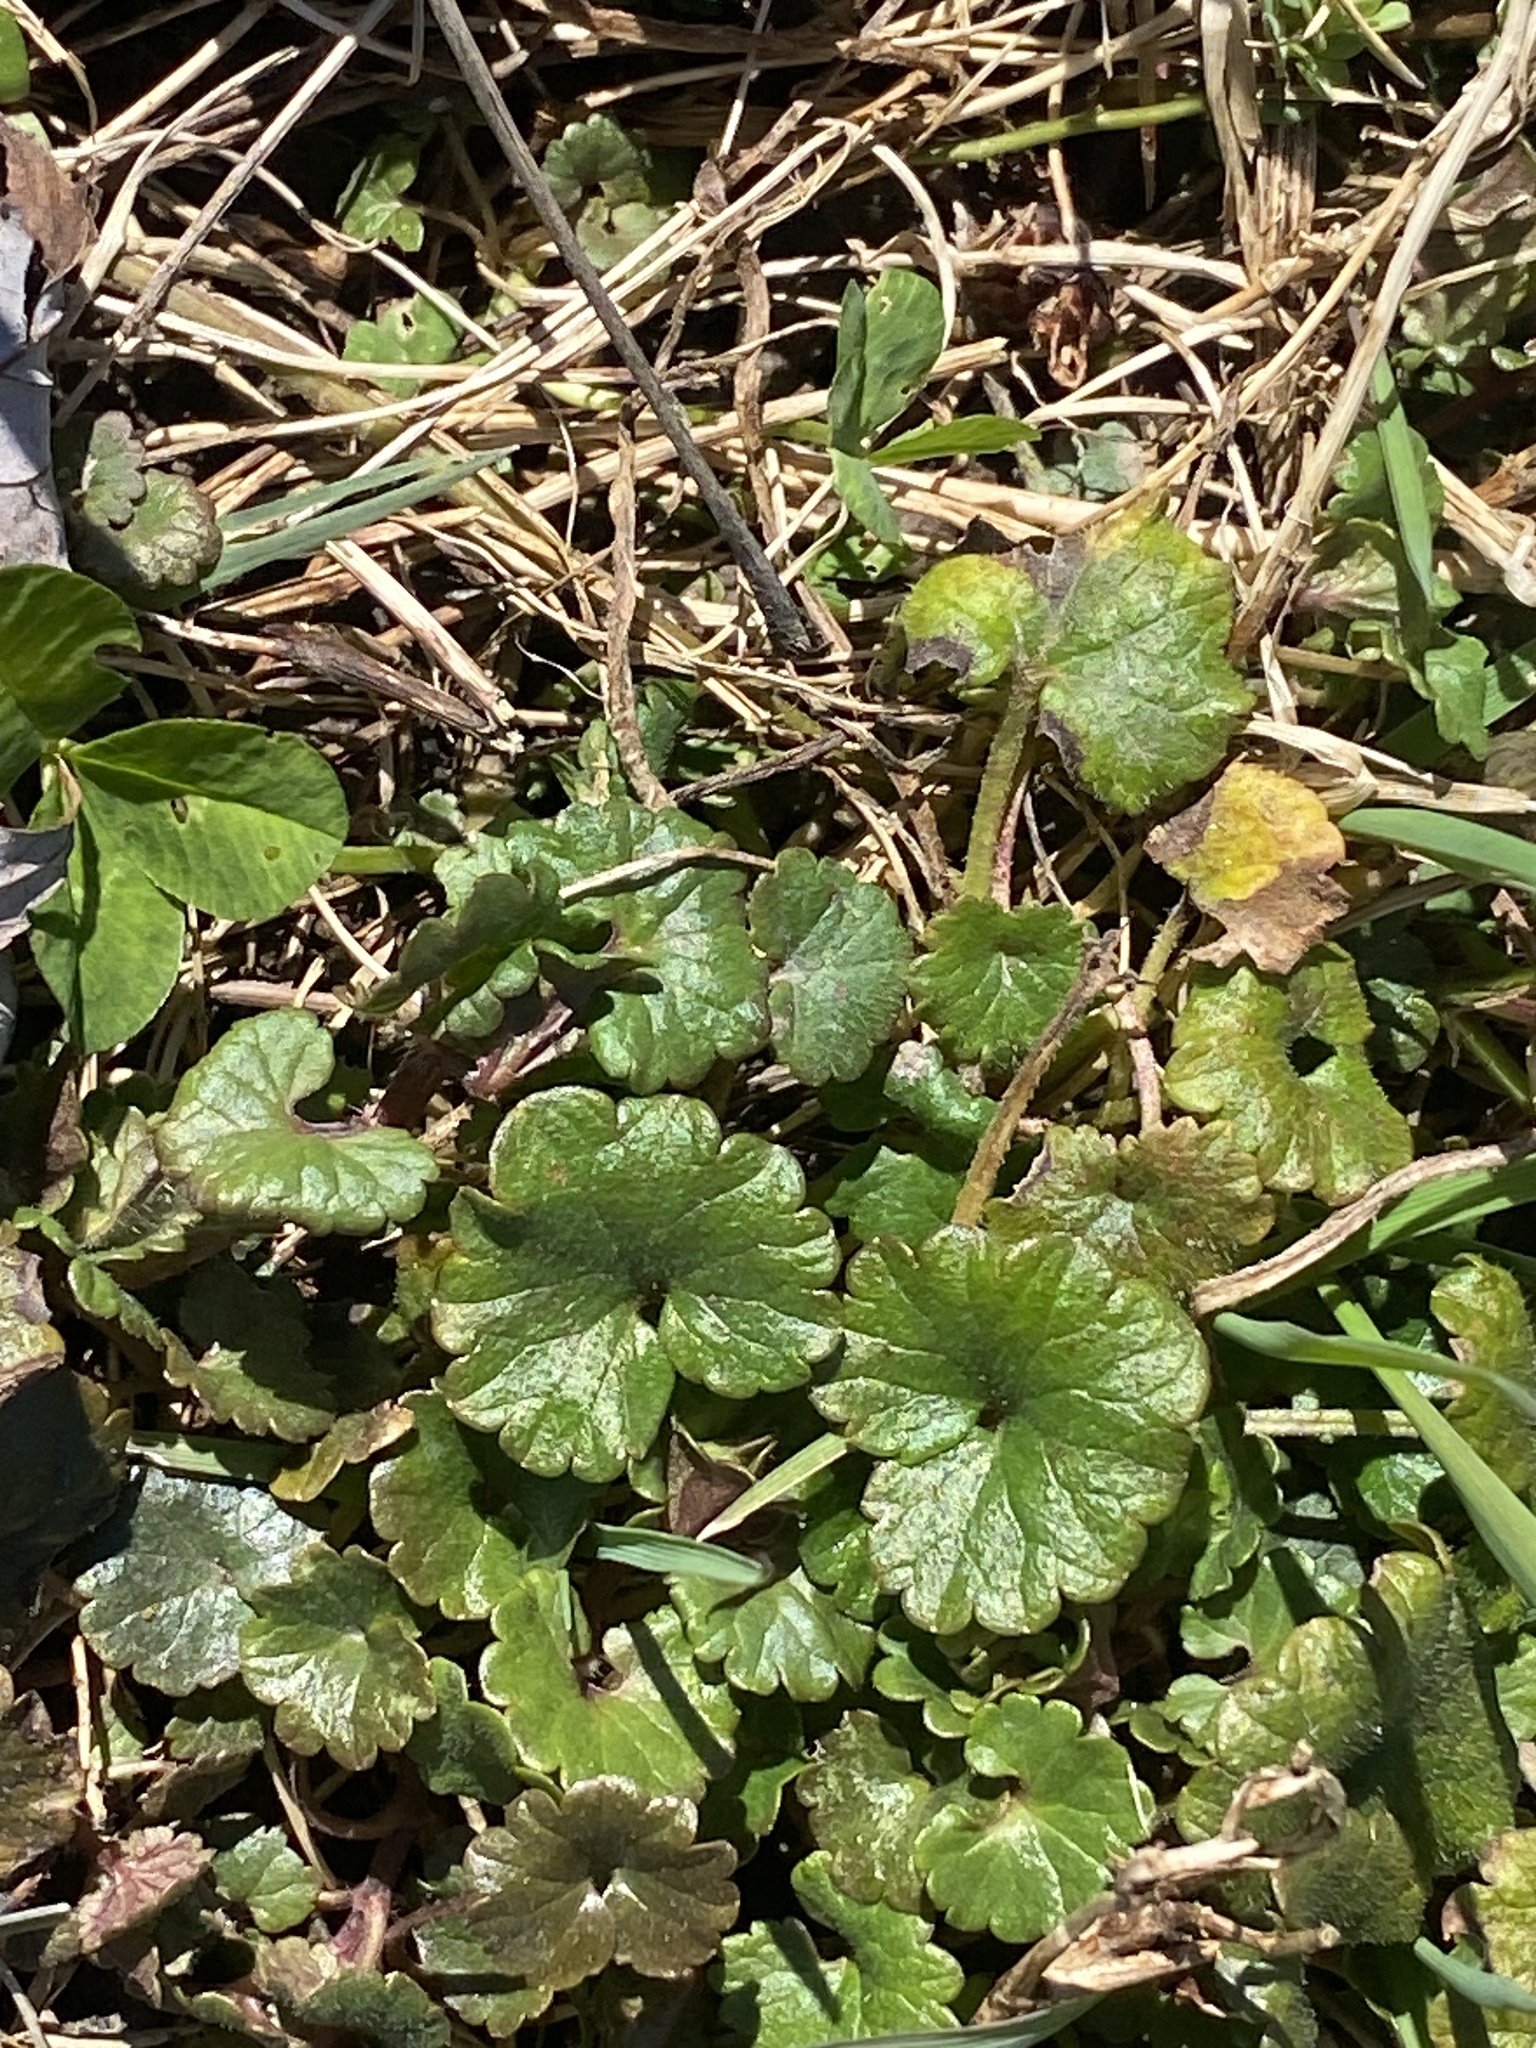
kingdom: Plantae
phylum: Tracheophyta
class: Magnoliopsida
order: Lamiales
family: Lamiaceae
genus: Glechoma
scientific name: Glechoma hederacea
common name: Ground ivy
